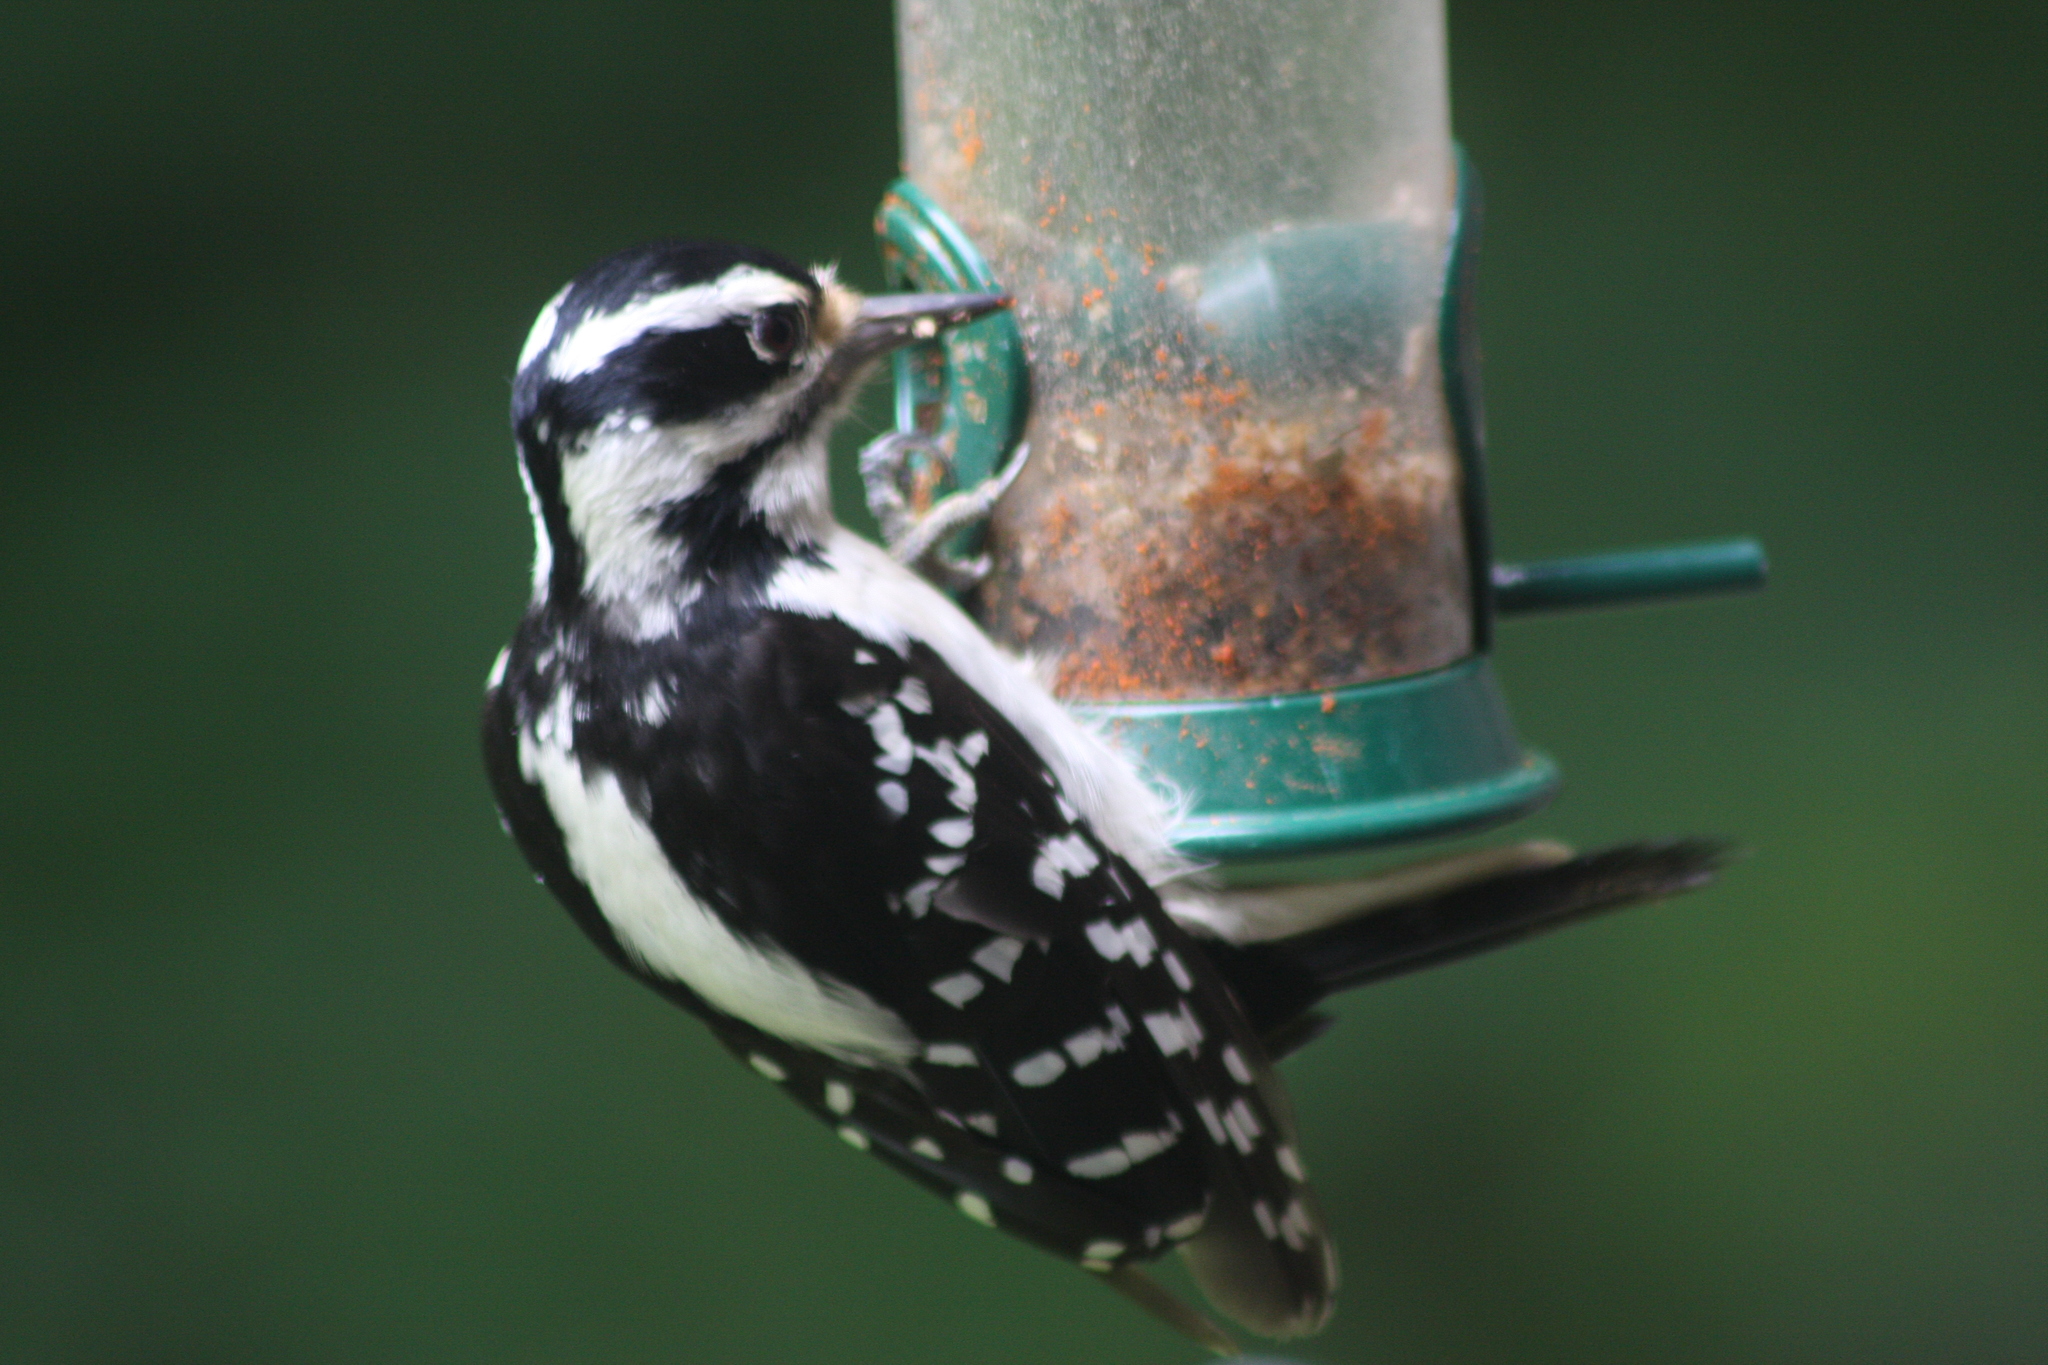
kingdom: Animalia
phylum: Chordata
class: Aves
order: Piciformes
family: Picidae
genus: Leuconotopicus
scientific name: Leuconotopicus villosus
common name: Hairy woodpecker
